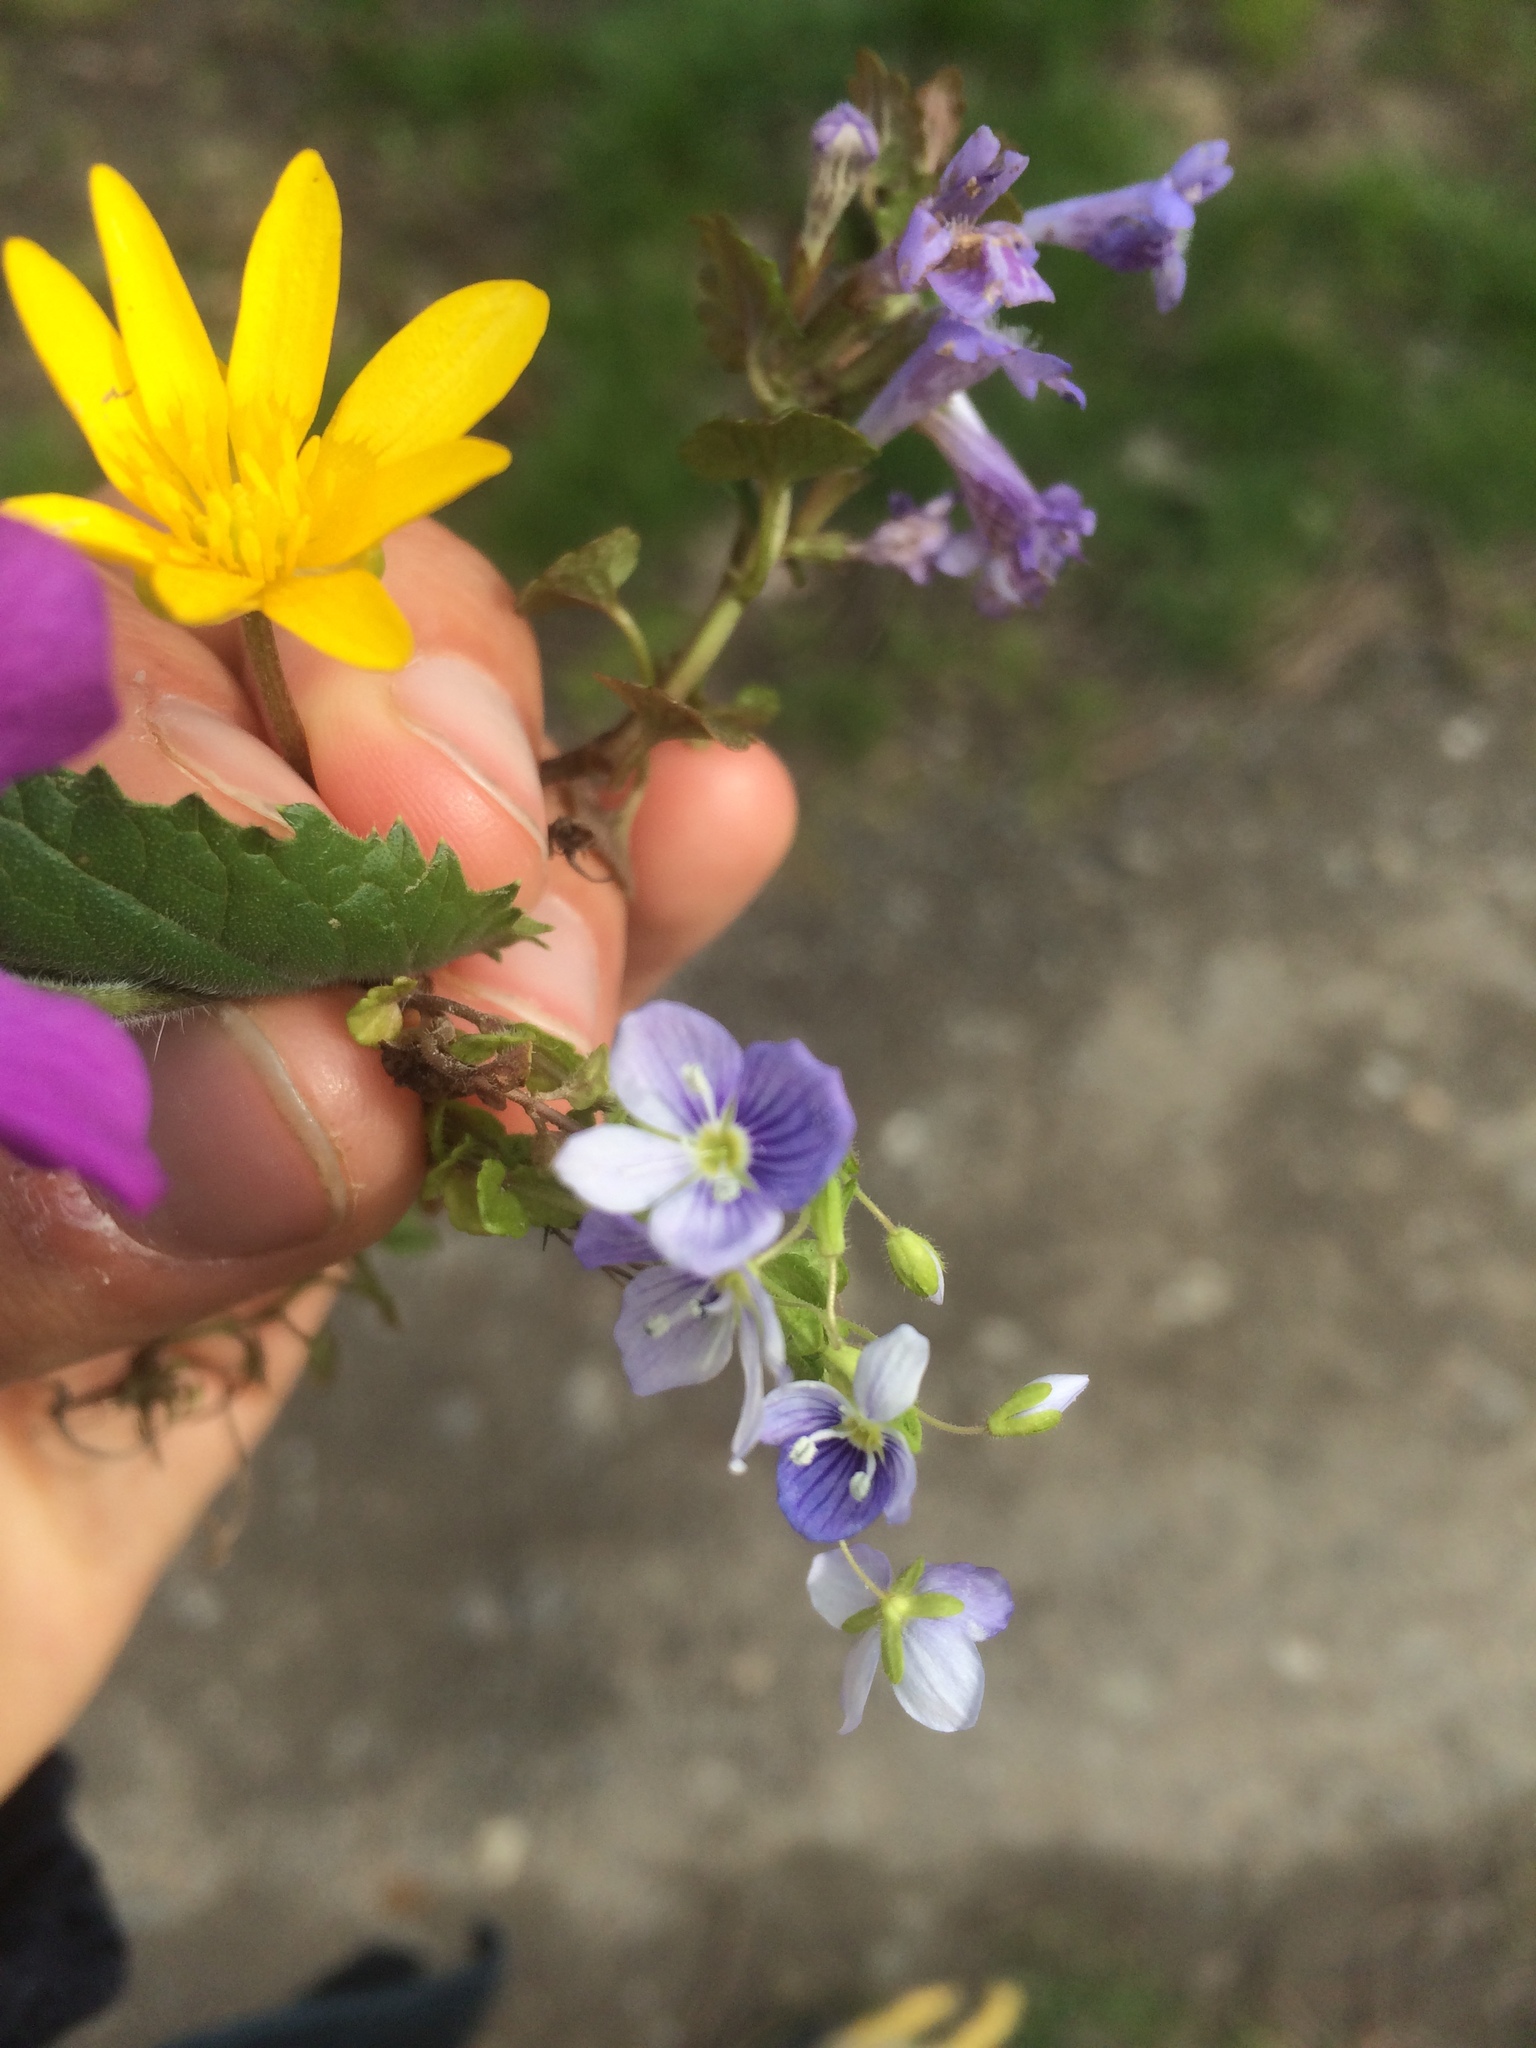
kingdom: Plantae
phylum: Tracheophyta
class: Magnoliopsida
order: Lamiales
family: Plantaginaceae
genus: Veronica
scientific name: Veronica filiformis
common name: Slender speedwell
